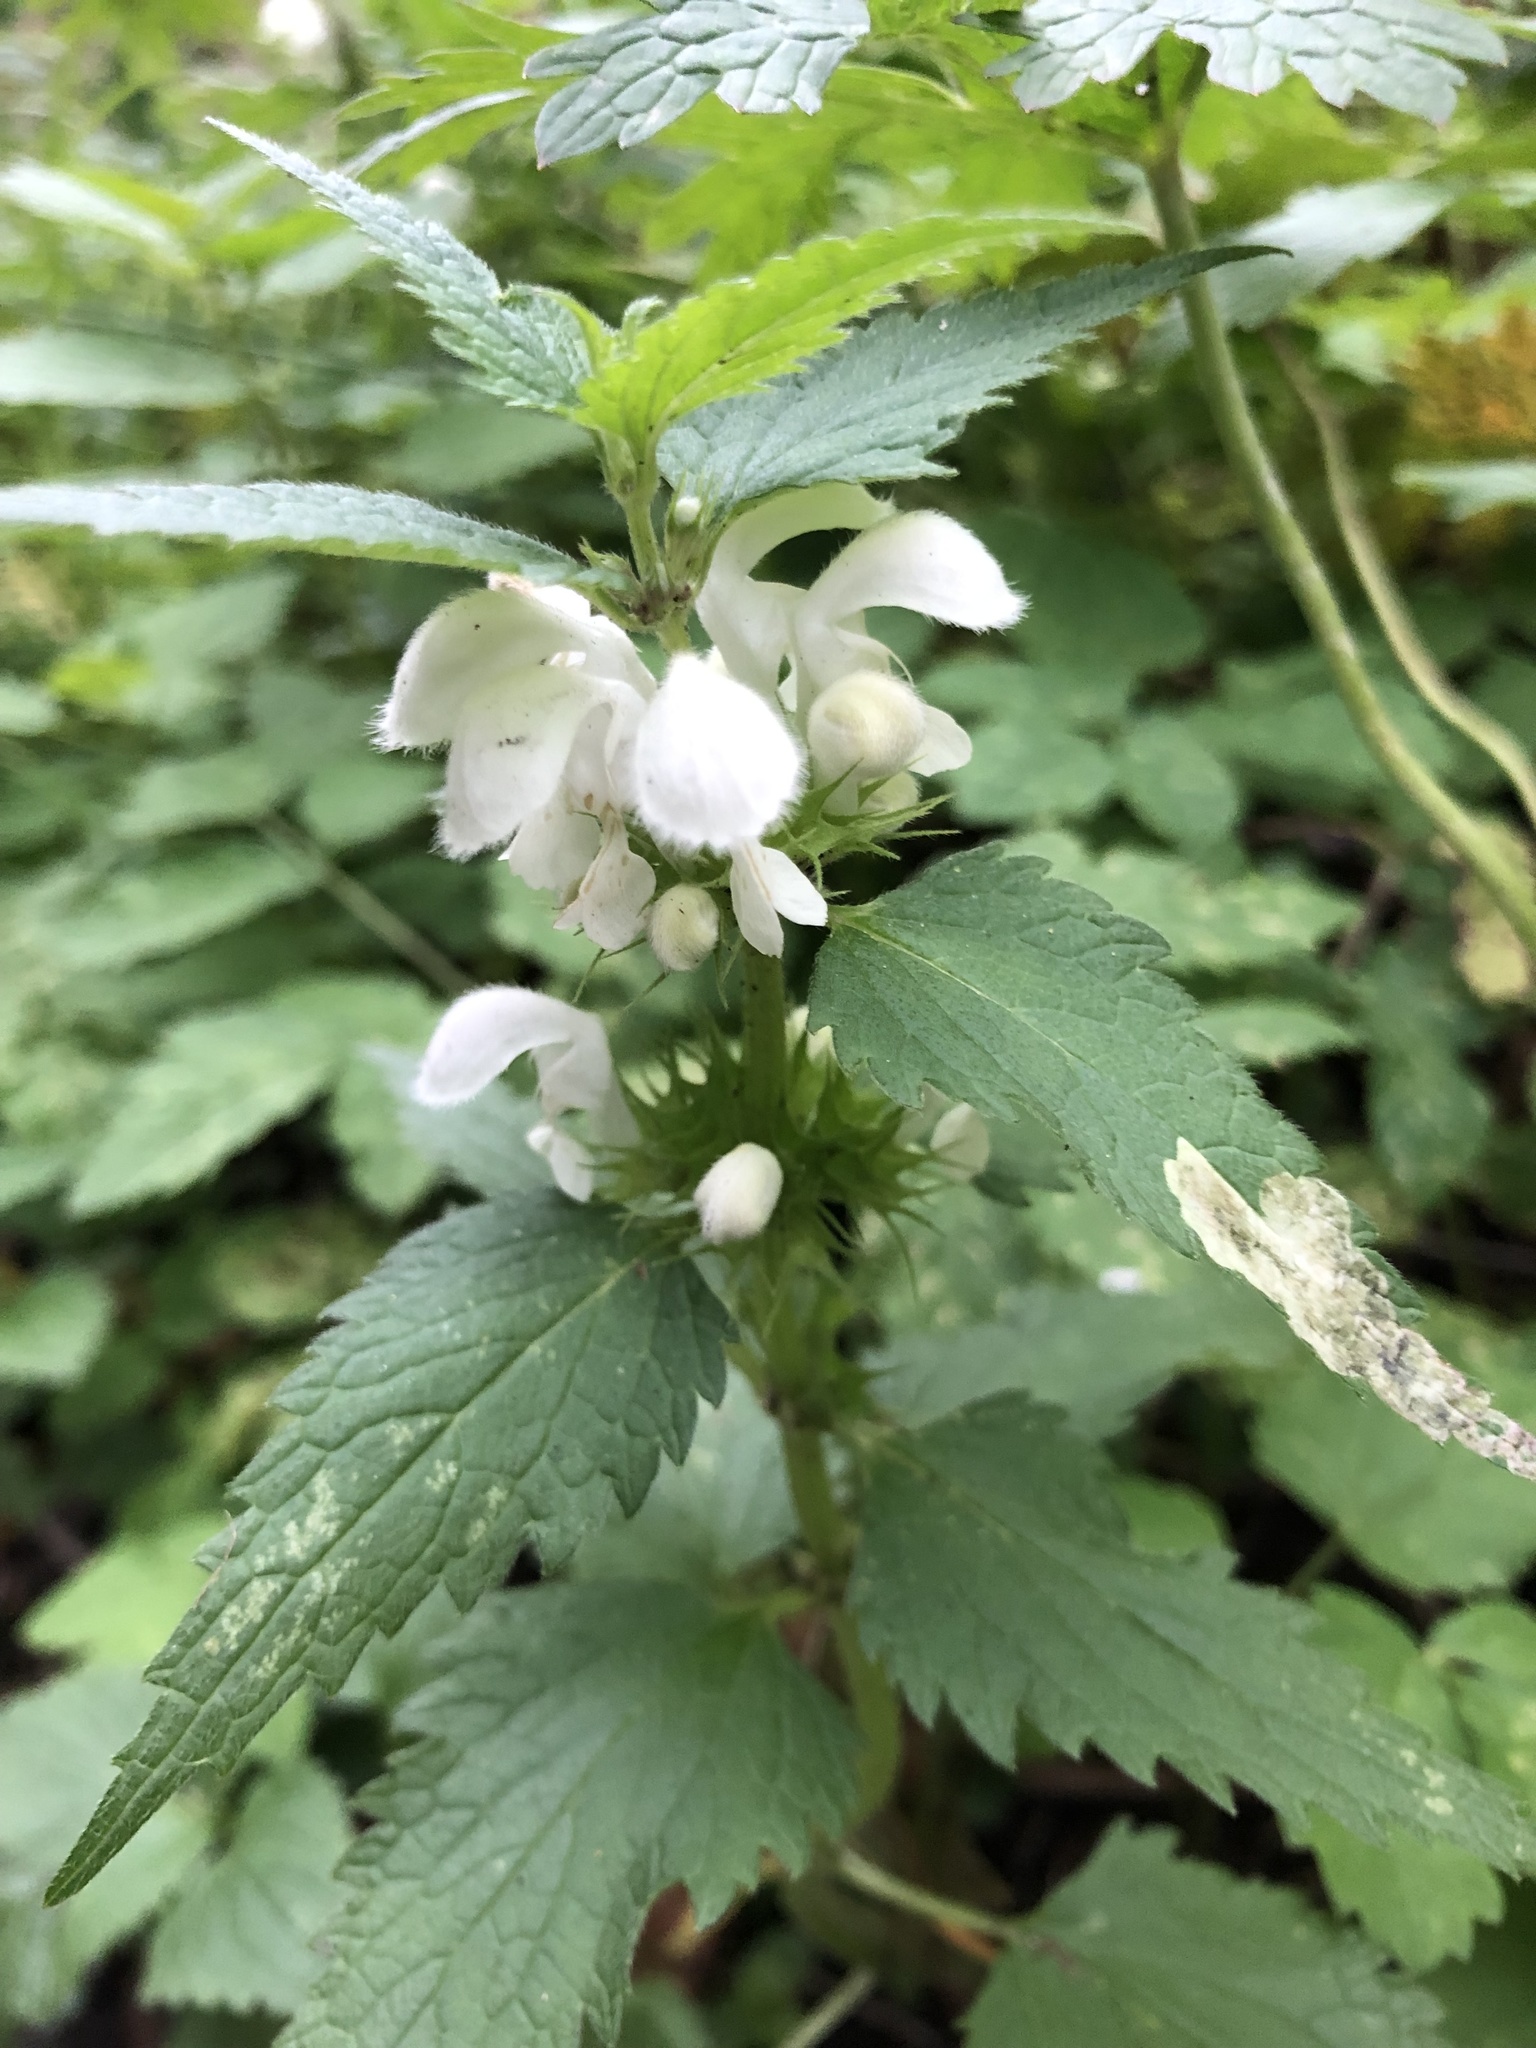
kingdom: Plantae
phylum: Tracheophyta
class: Magnoliopsida
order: Lamiales
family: Lamiaceae
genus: Lamium
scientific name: Lamium album
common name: White dead-nettle
